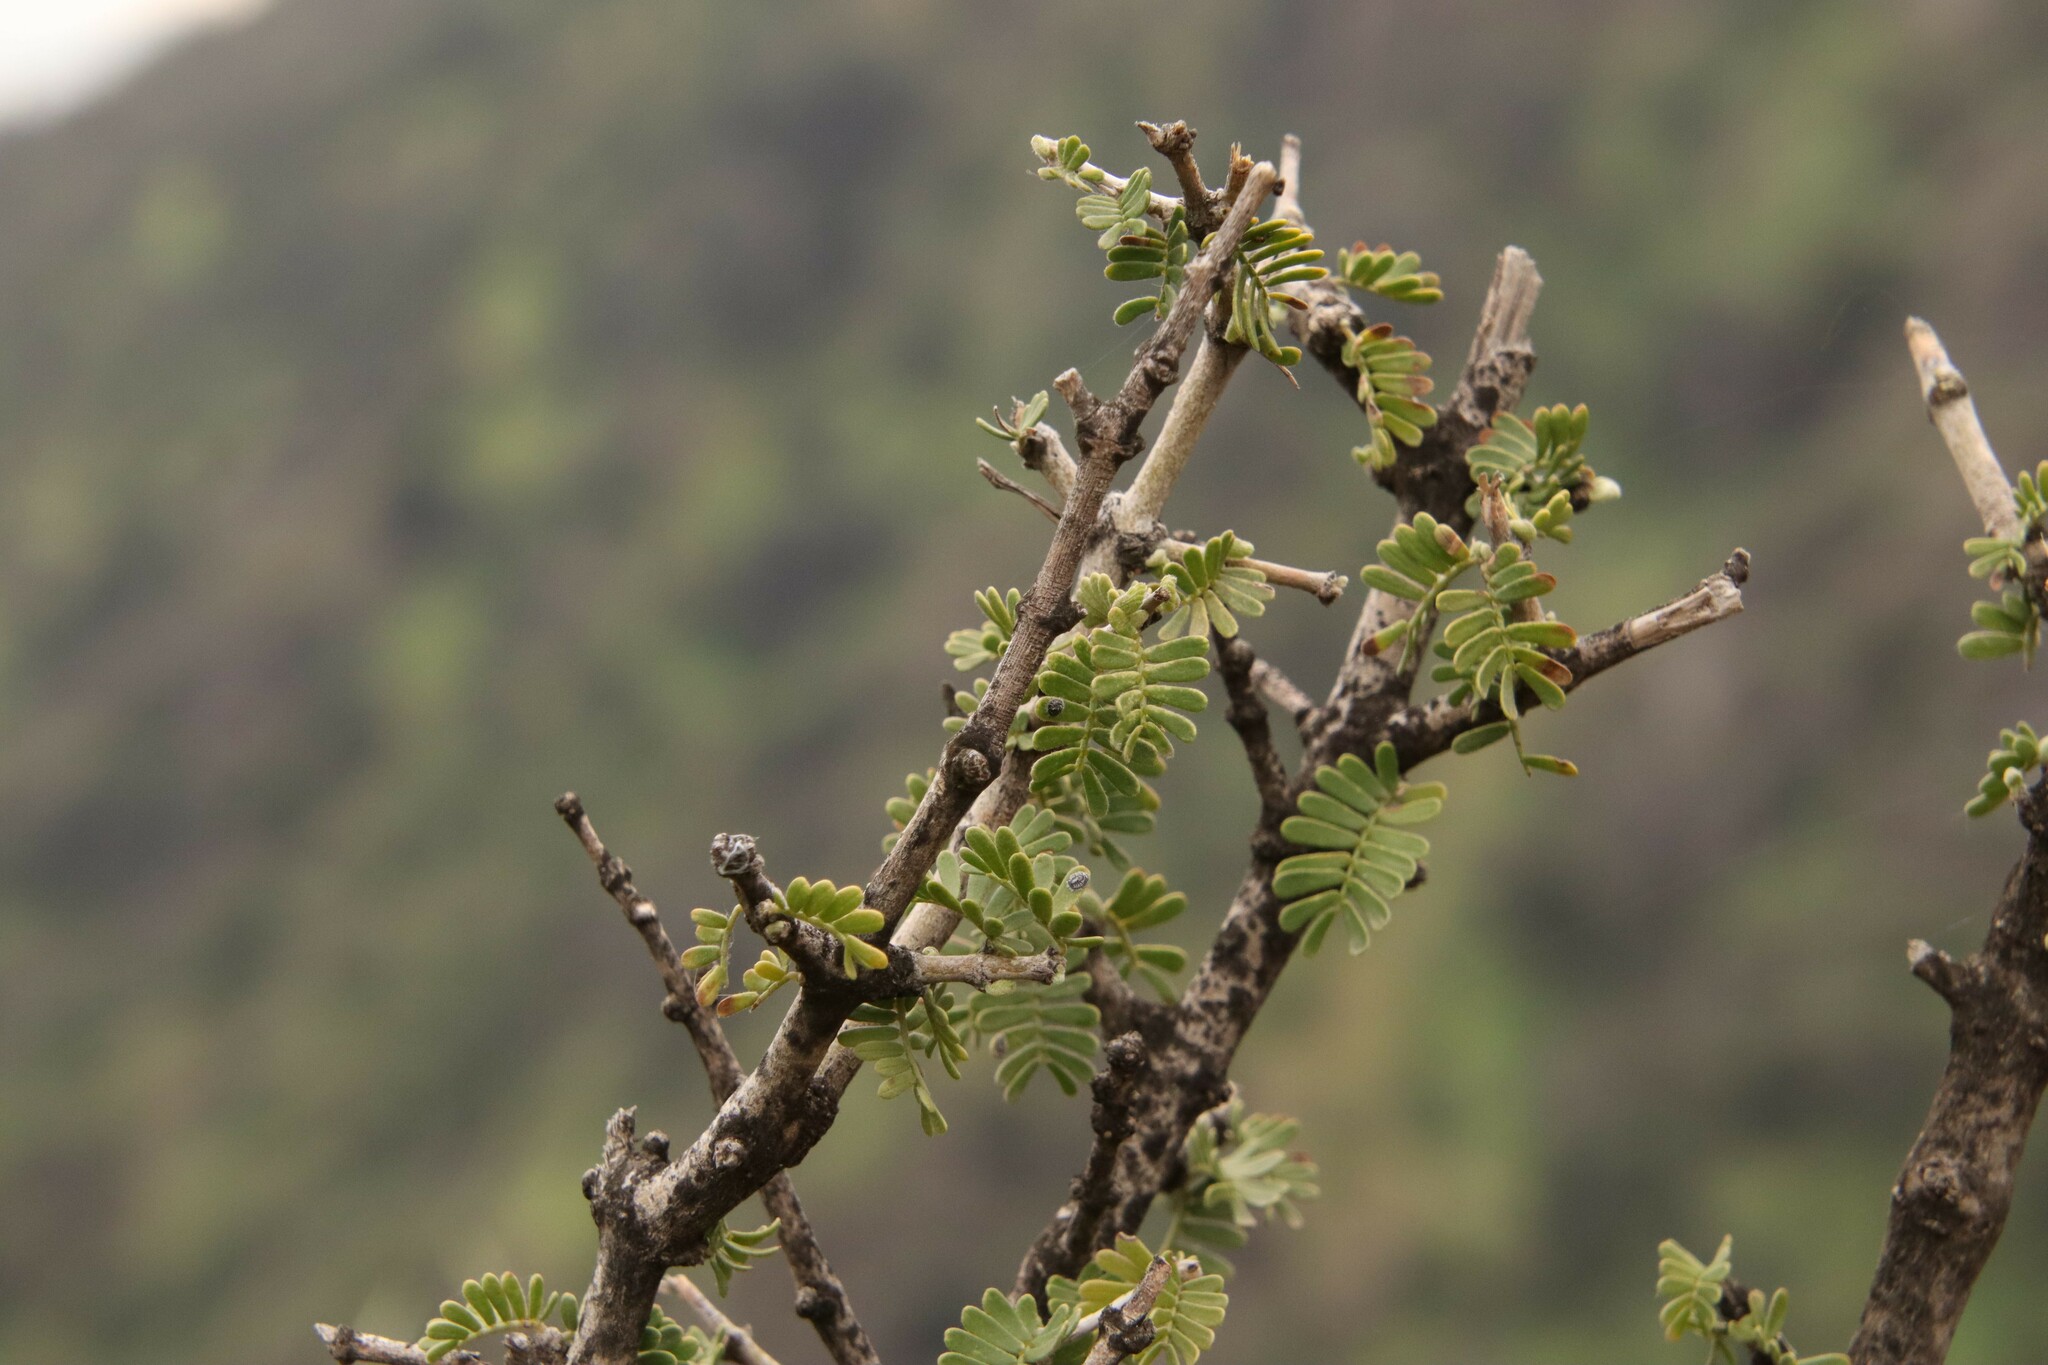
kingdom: Plantae
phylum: Tracheophyta
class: Magnoliopsida
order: Zygophyllales
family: Zygophyllaceae
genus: Porlieria
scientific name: Porlieria chilensis
